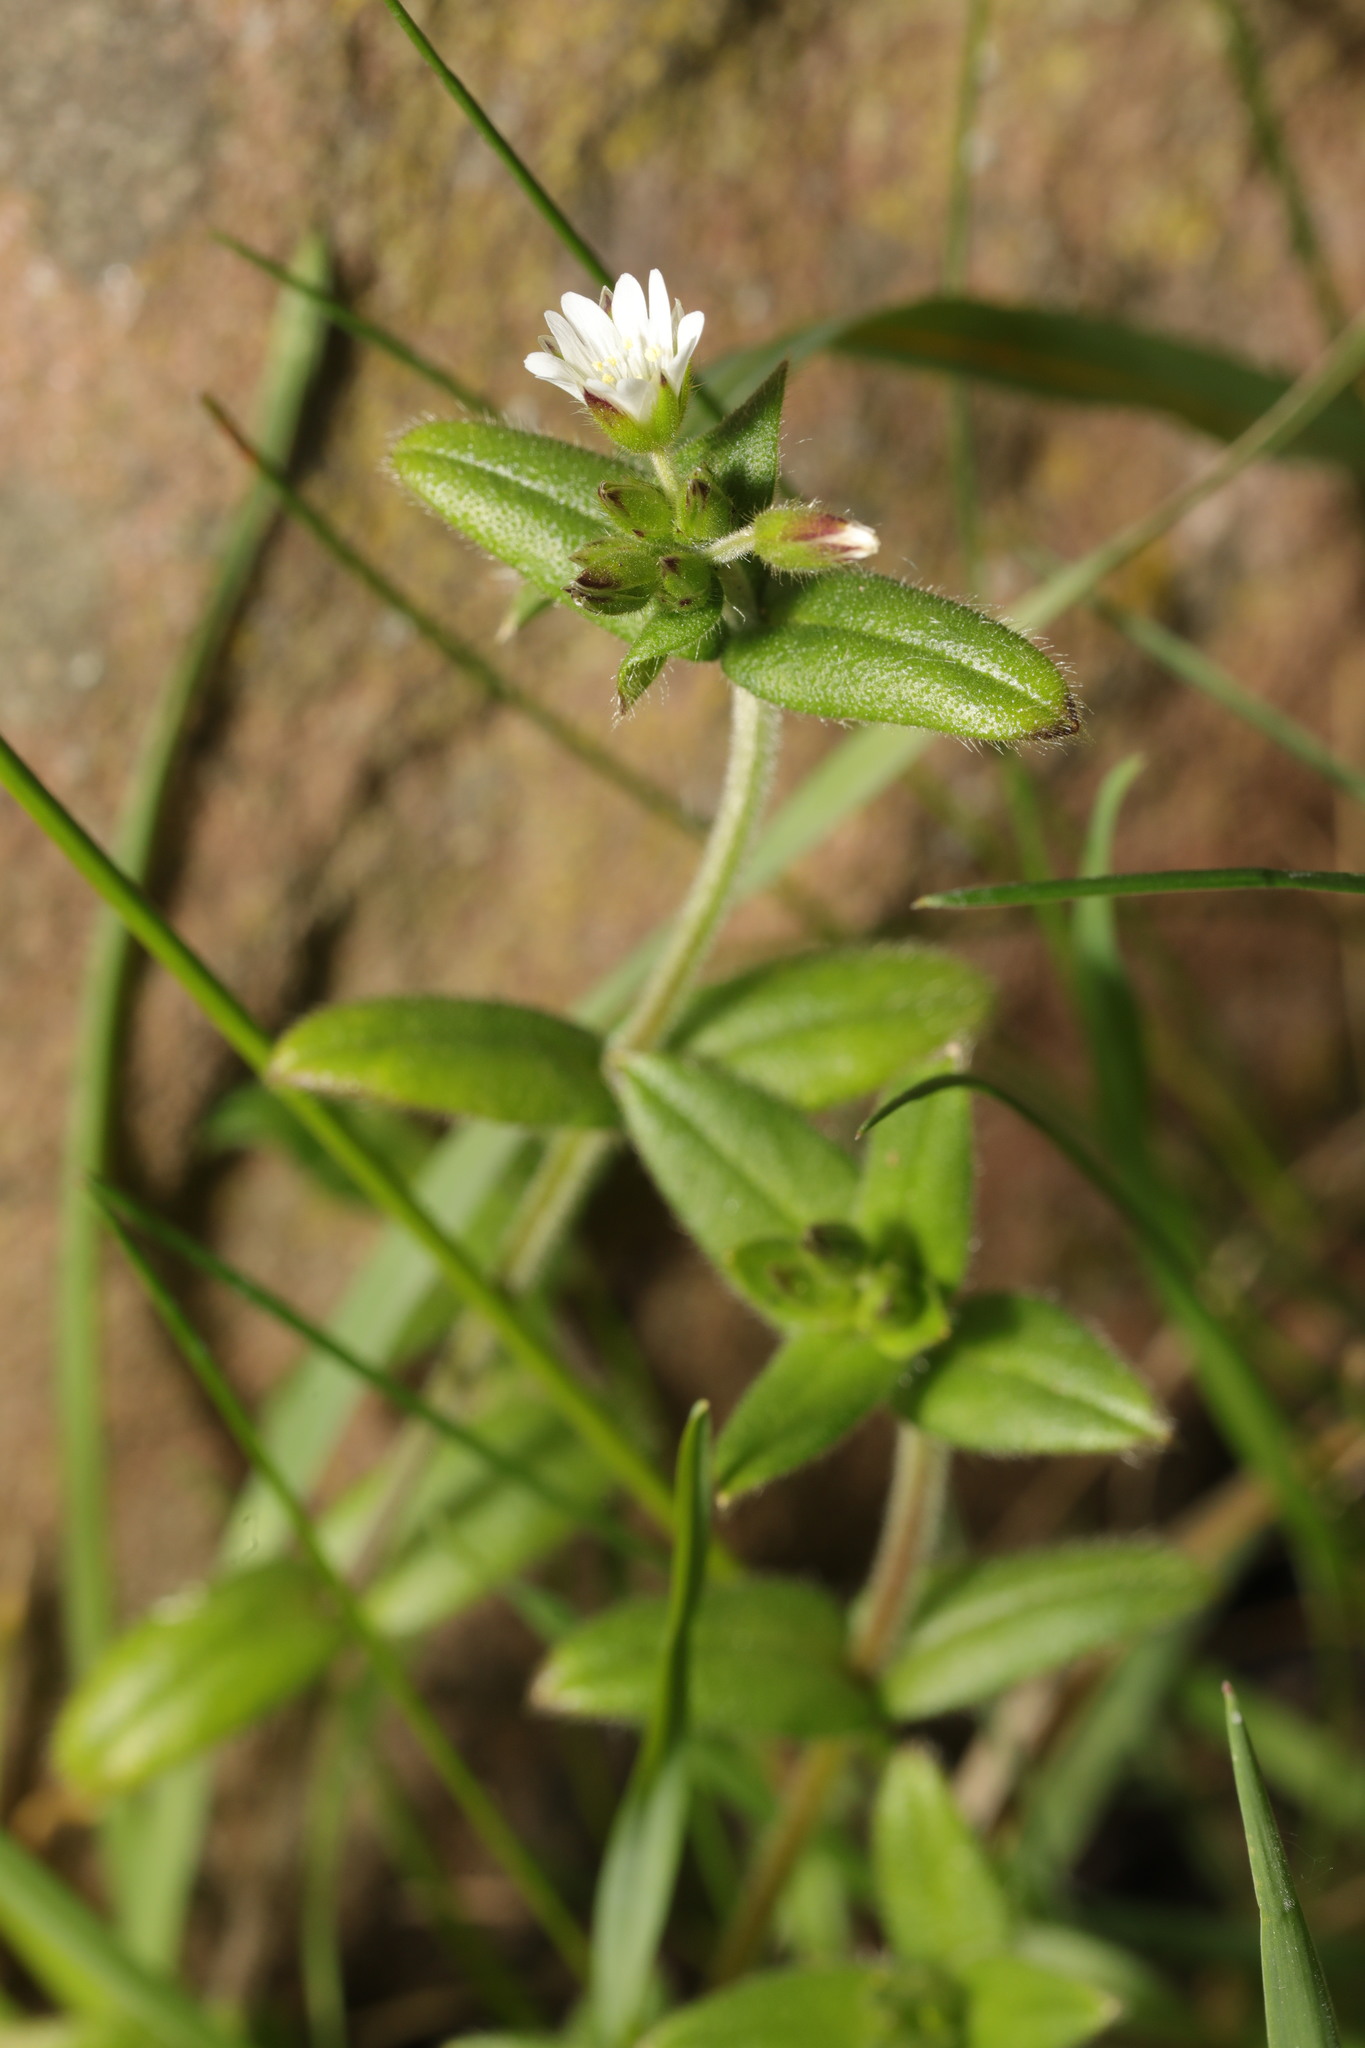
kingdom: Plantae
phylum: Tracheophyta
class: Magnoliopsida
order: Caryophyllales
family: Caryophyllaceae
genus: Cerastium
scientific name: Cerastium fontanum
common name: Common mouse-ear
